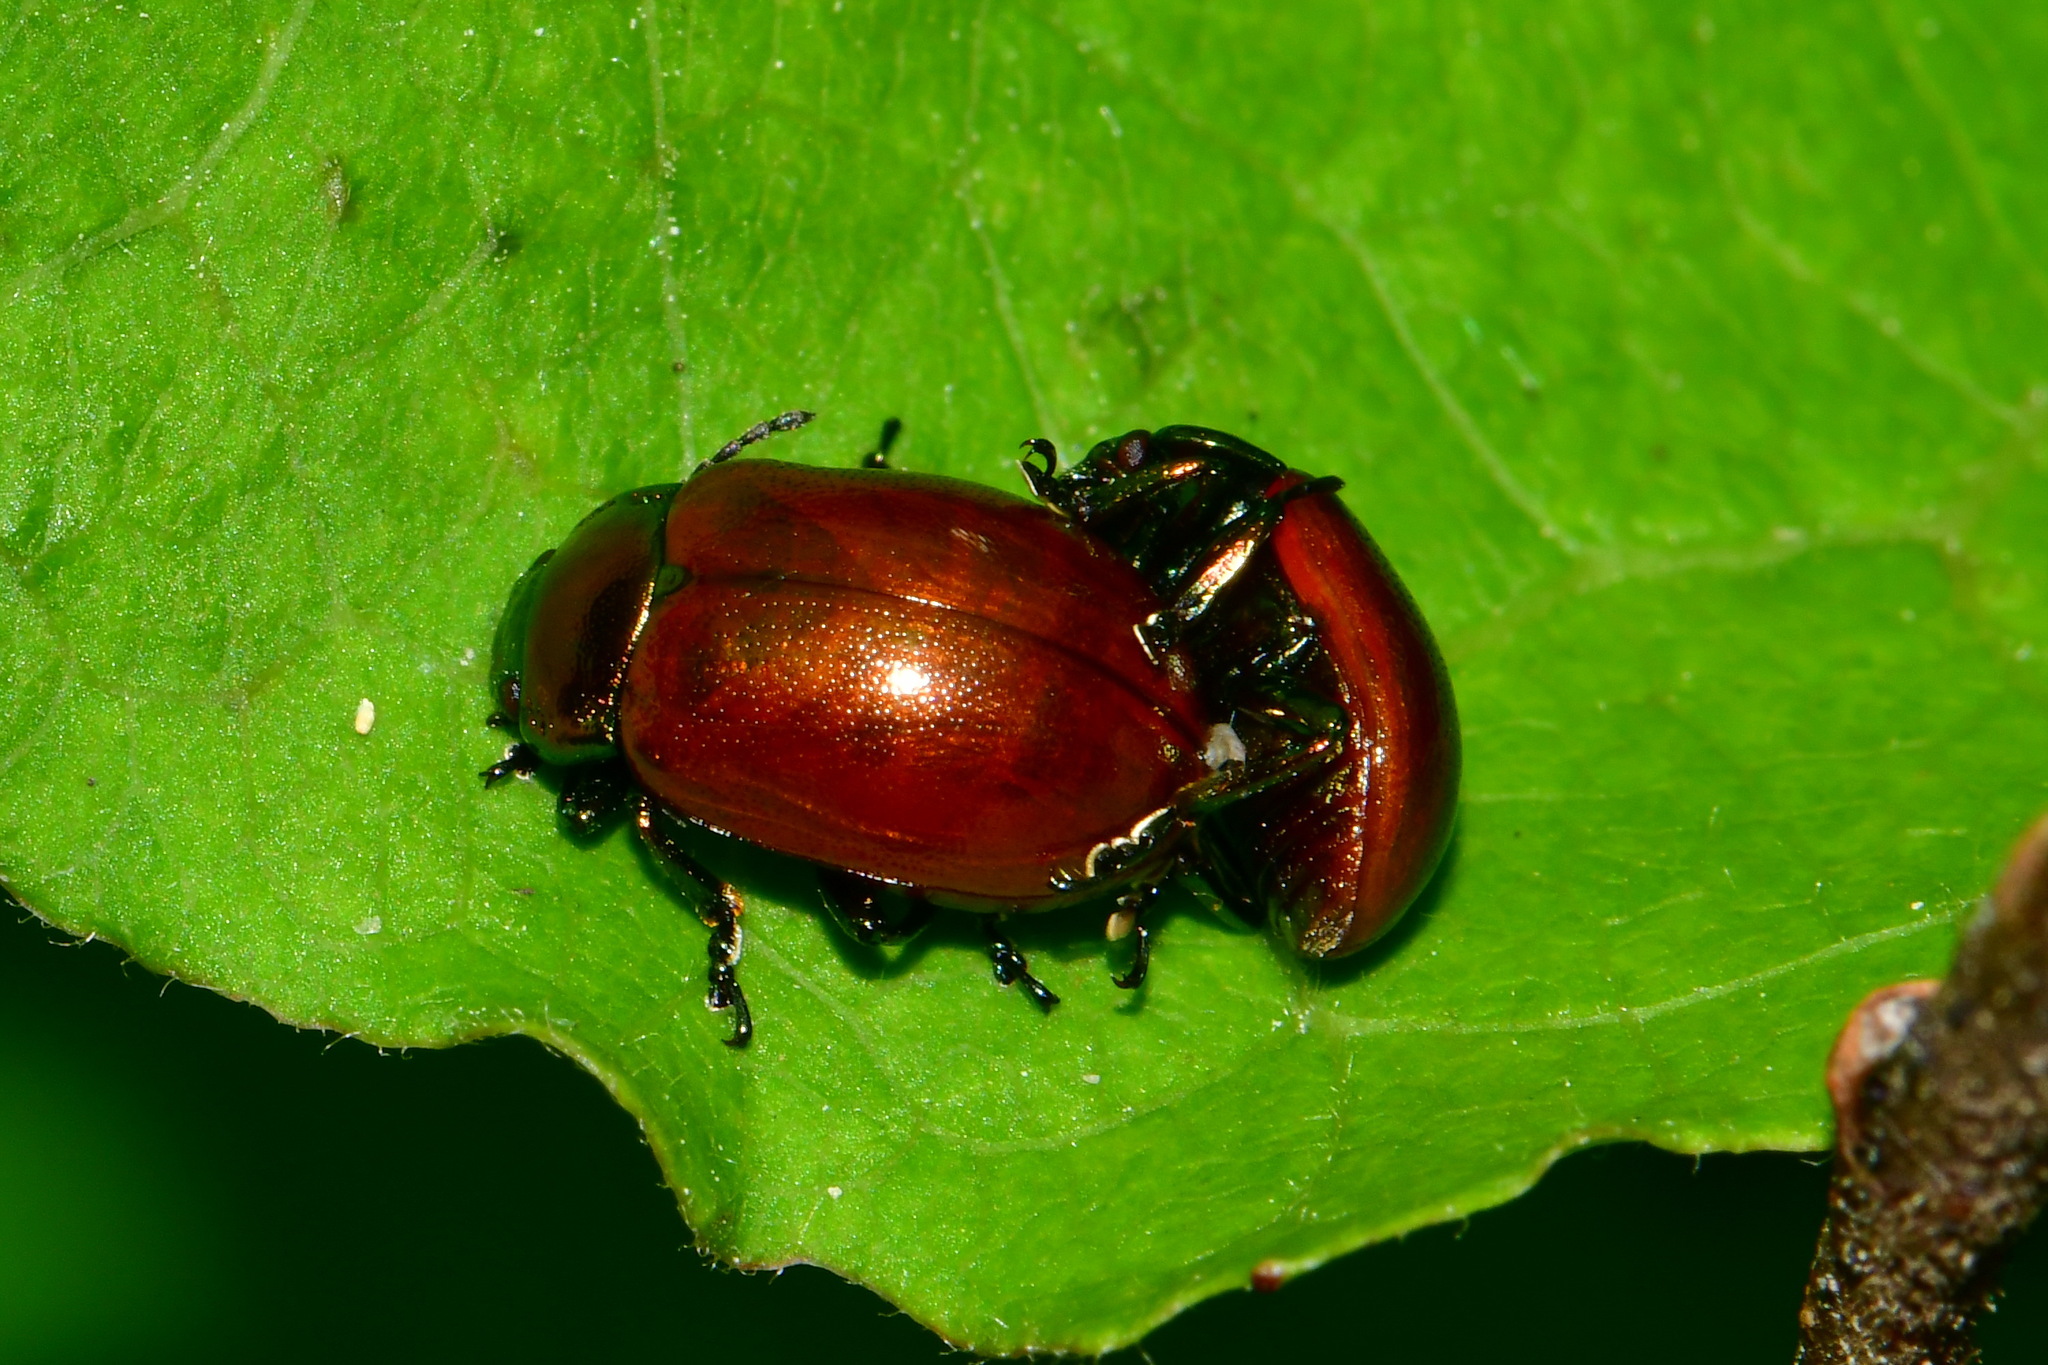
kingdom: Animalia
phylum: Arthropoda
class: Insecta
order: Coleoptera
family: Chrysomelidae
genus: Chrysomela
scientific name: Chrysomela polita
